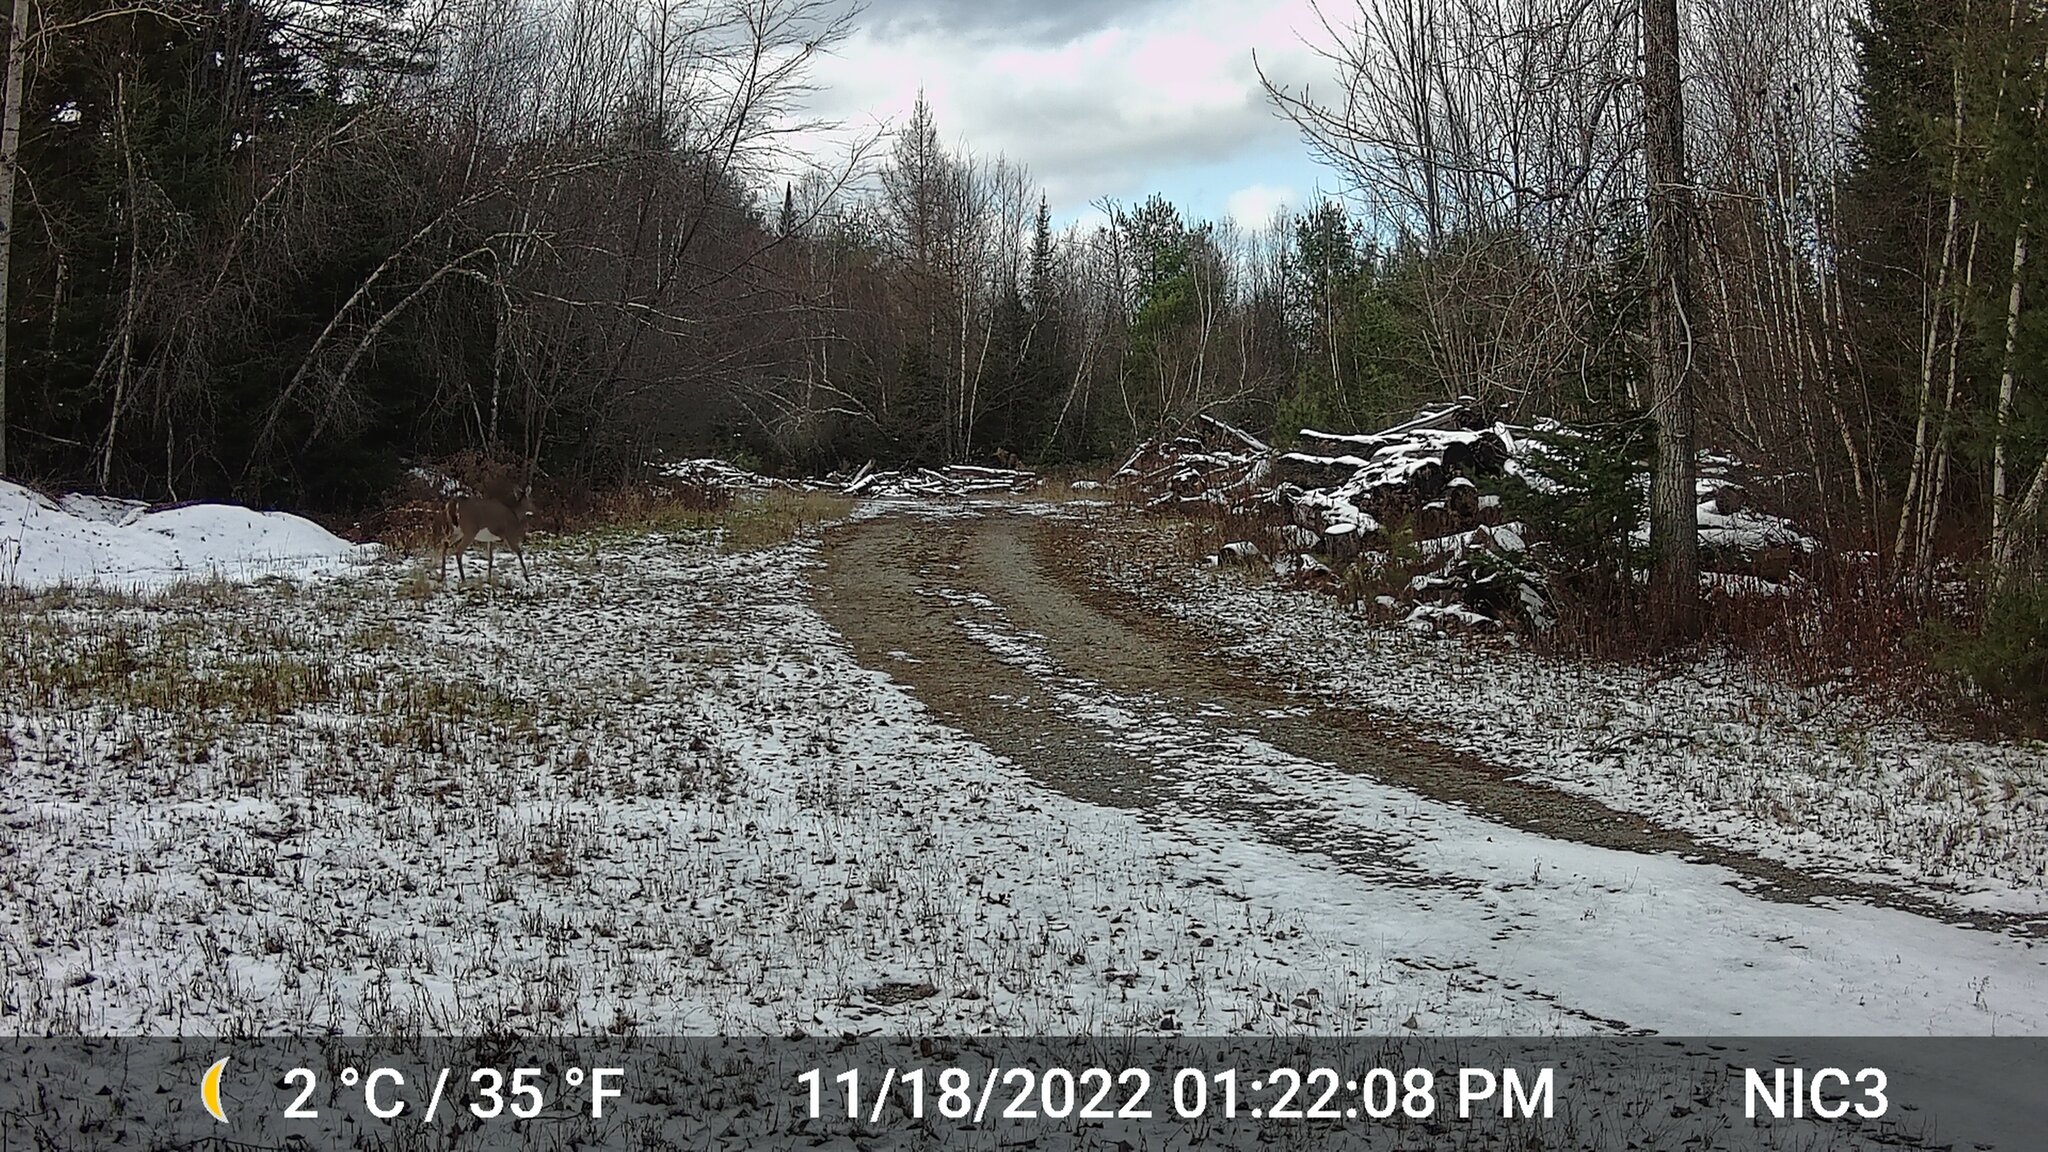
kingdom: Animalia
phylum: Chordata
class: Mammalia
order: Artiodactyla
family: Cervidae
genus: Odocoileus
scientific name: Odocoileus virginianus
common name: White-tailed deer
